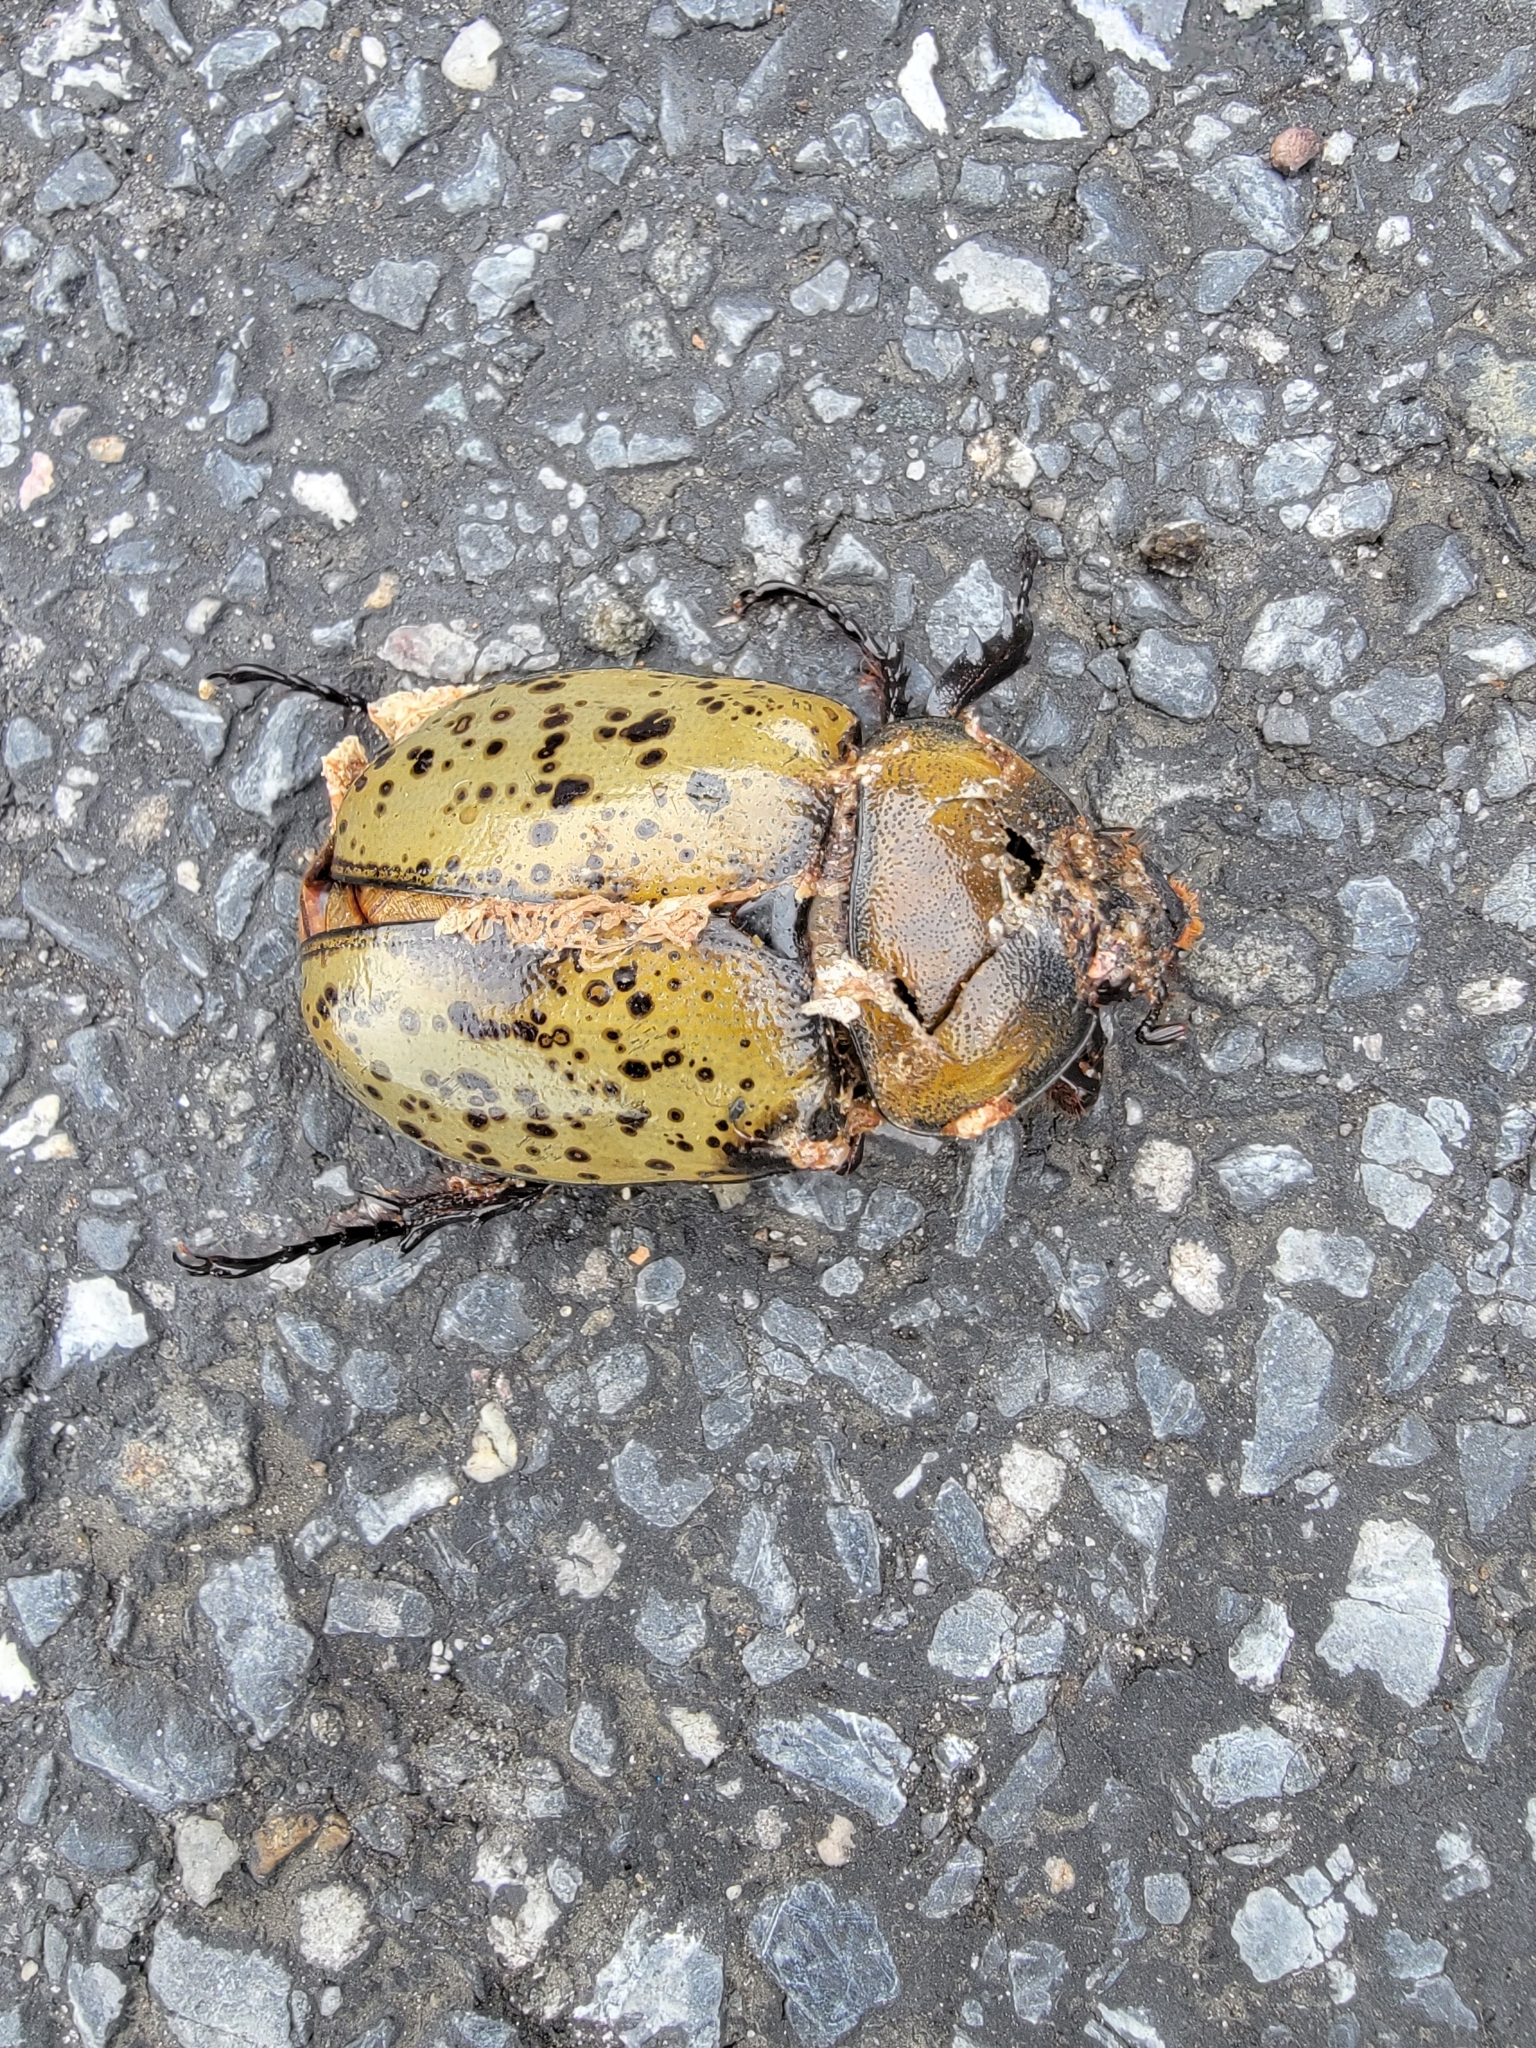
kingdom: Animalia
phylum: Arthropoda
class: Insecta
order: Coleoptera
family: Scarabaeidae
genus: Dynastes
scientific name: Dynastes tityus
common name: Eastern hercules beetle
